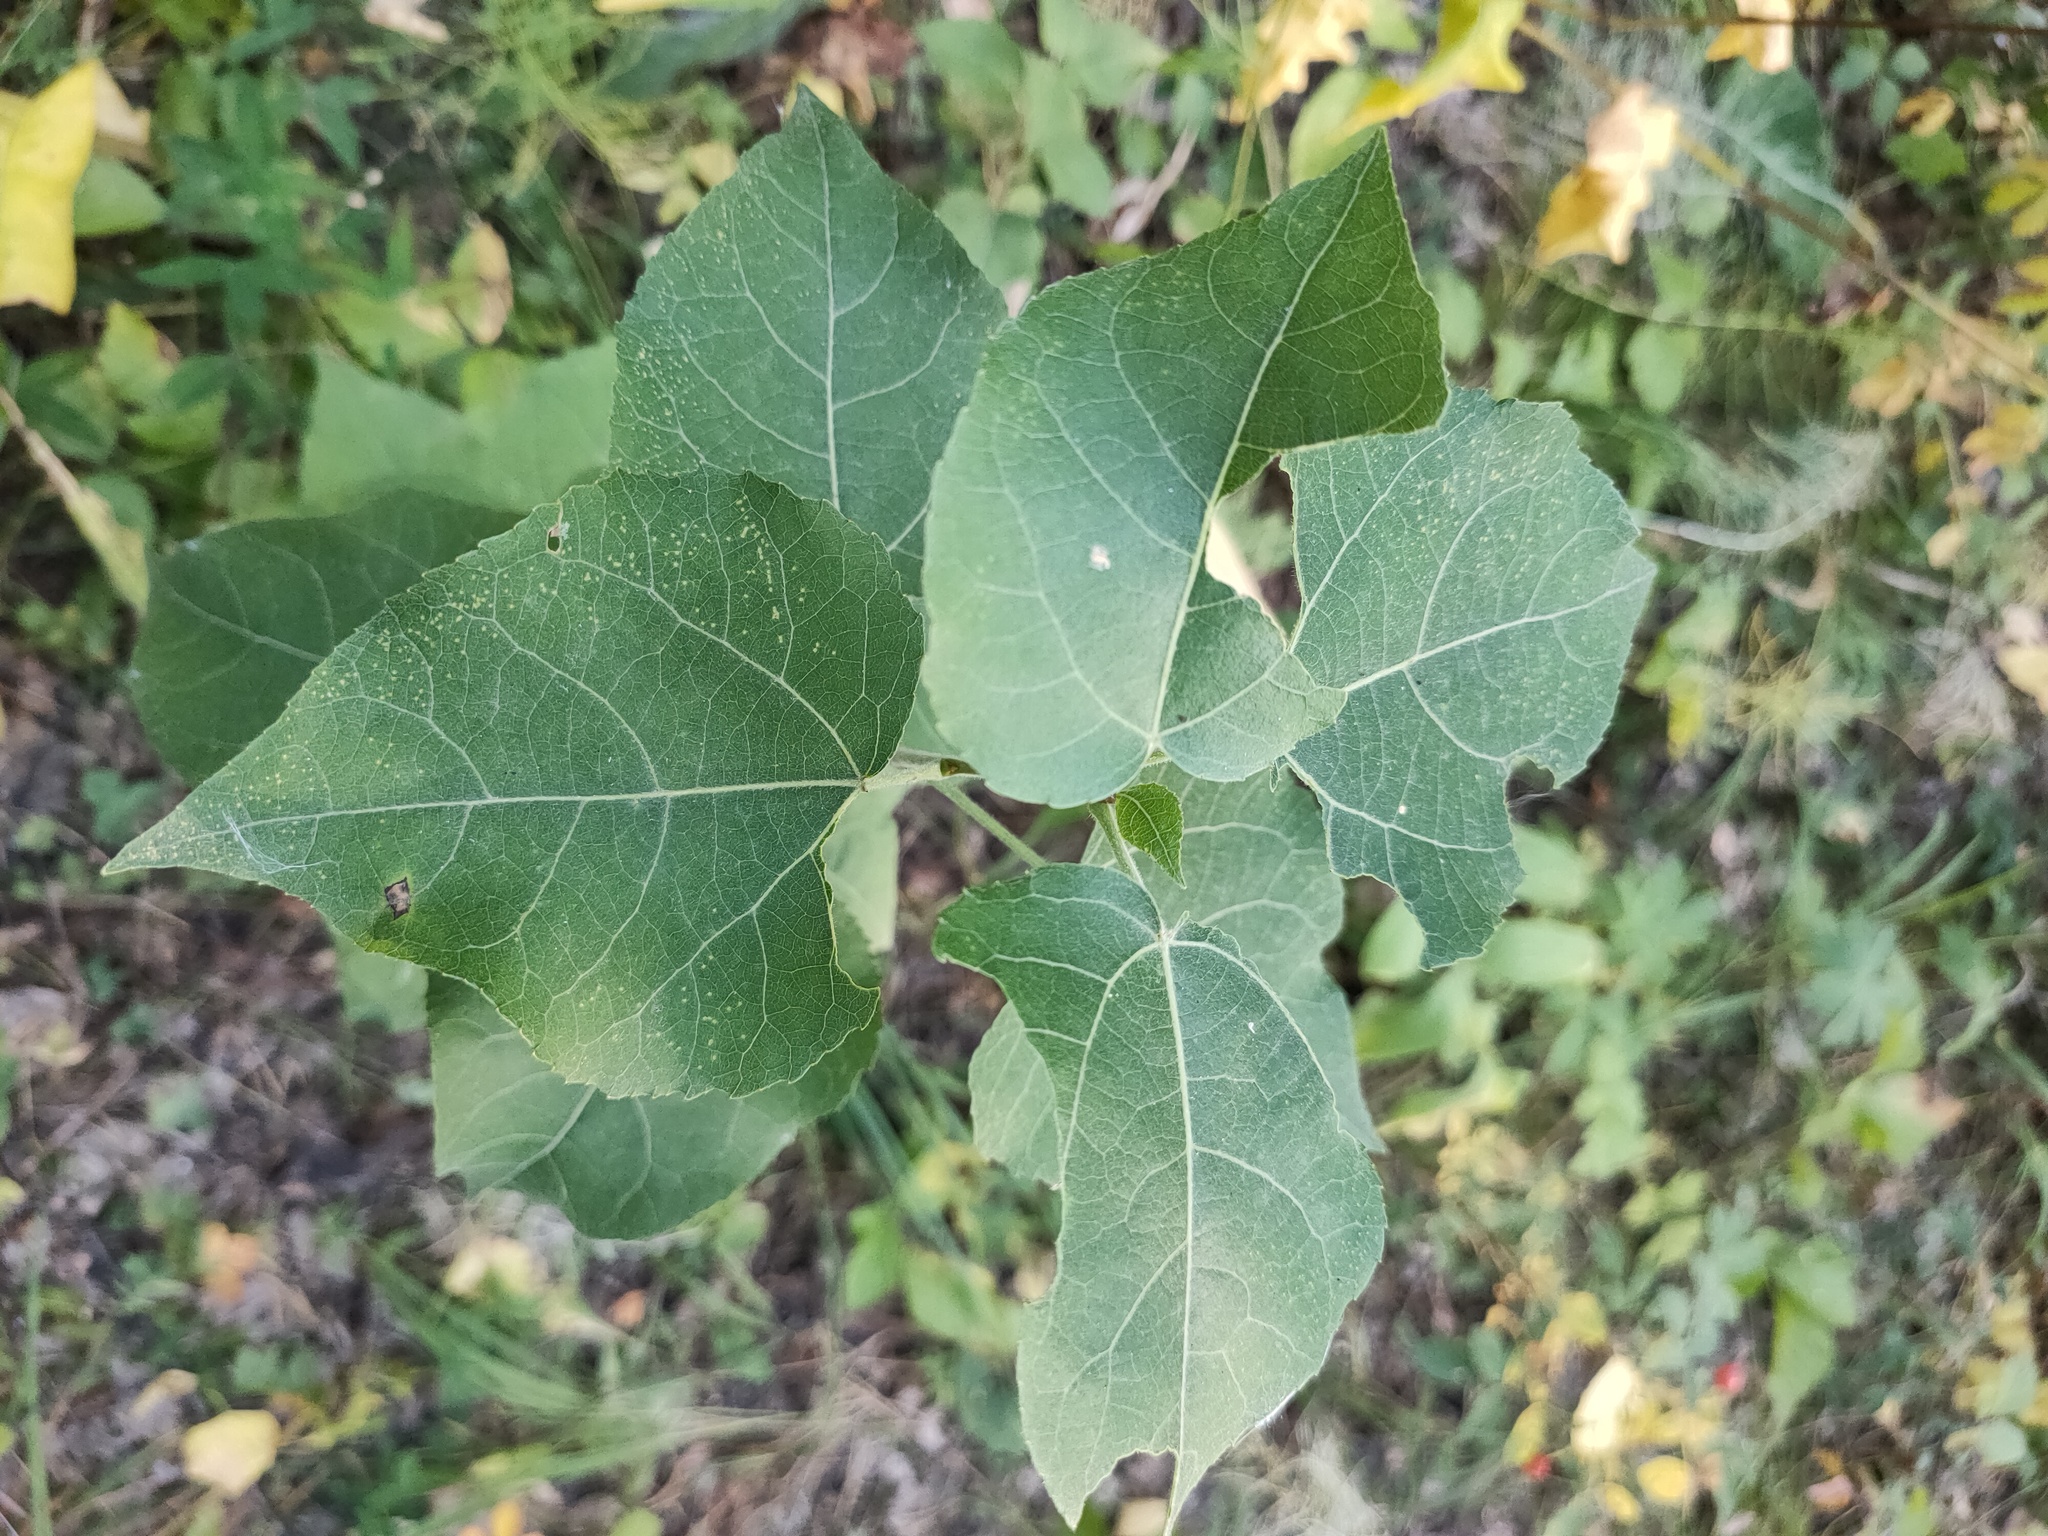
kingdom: Plantae
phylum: Tracheophyta
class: Magnoliopsida
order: Malpighiales
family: Salicaceae
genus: Populus
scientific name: Populus tremula
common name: European aspen
